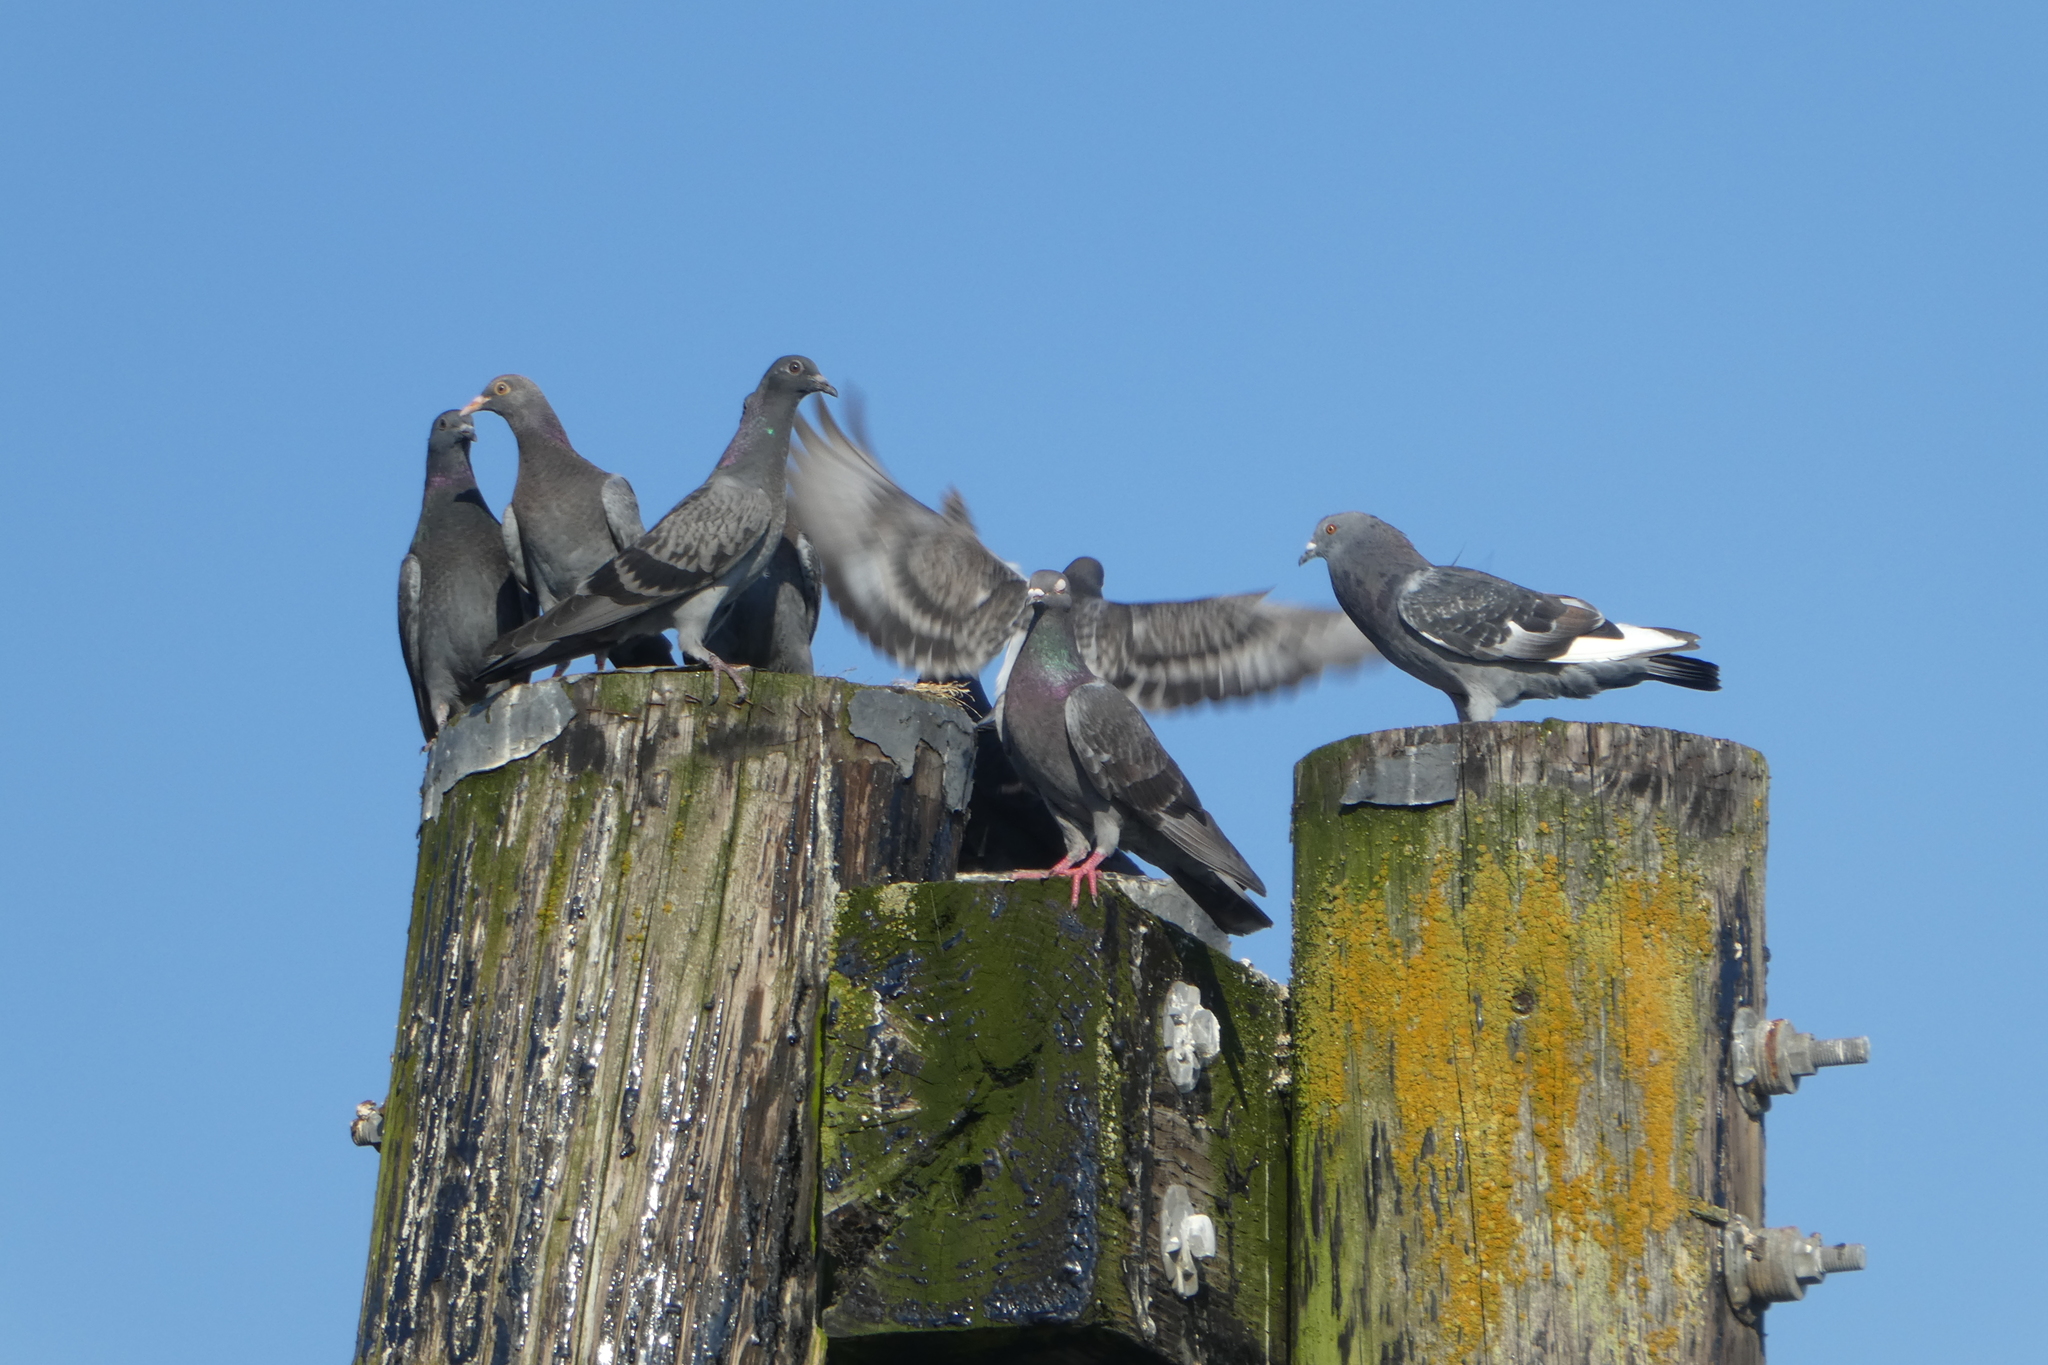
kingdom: Animalia
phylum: Chordata
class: Aves
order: Columbiformes
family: Columbidae
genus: Columba
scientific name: Columba livia
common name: Rock pigeon
